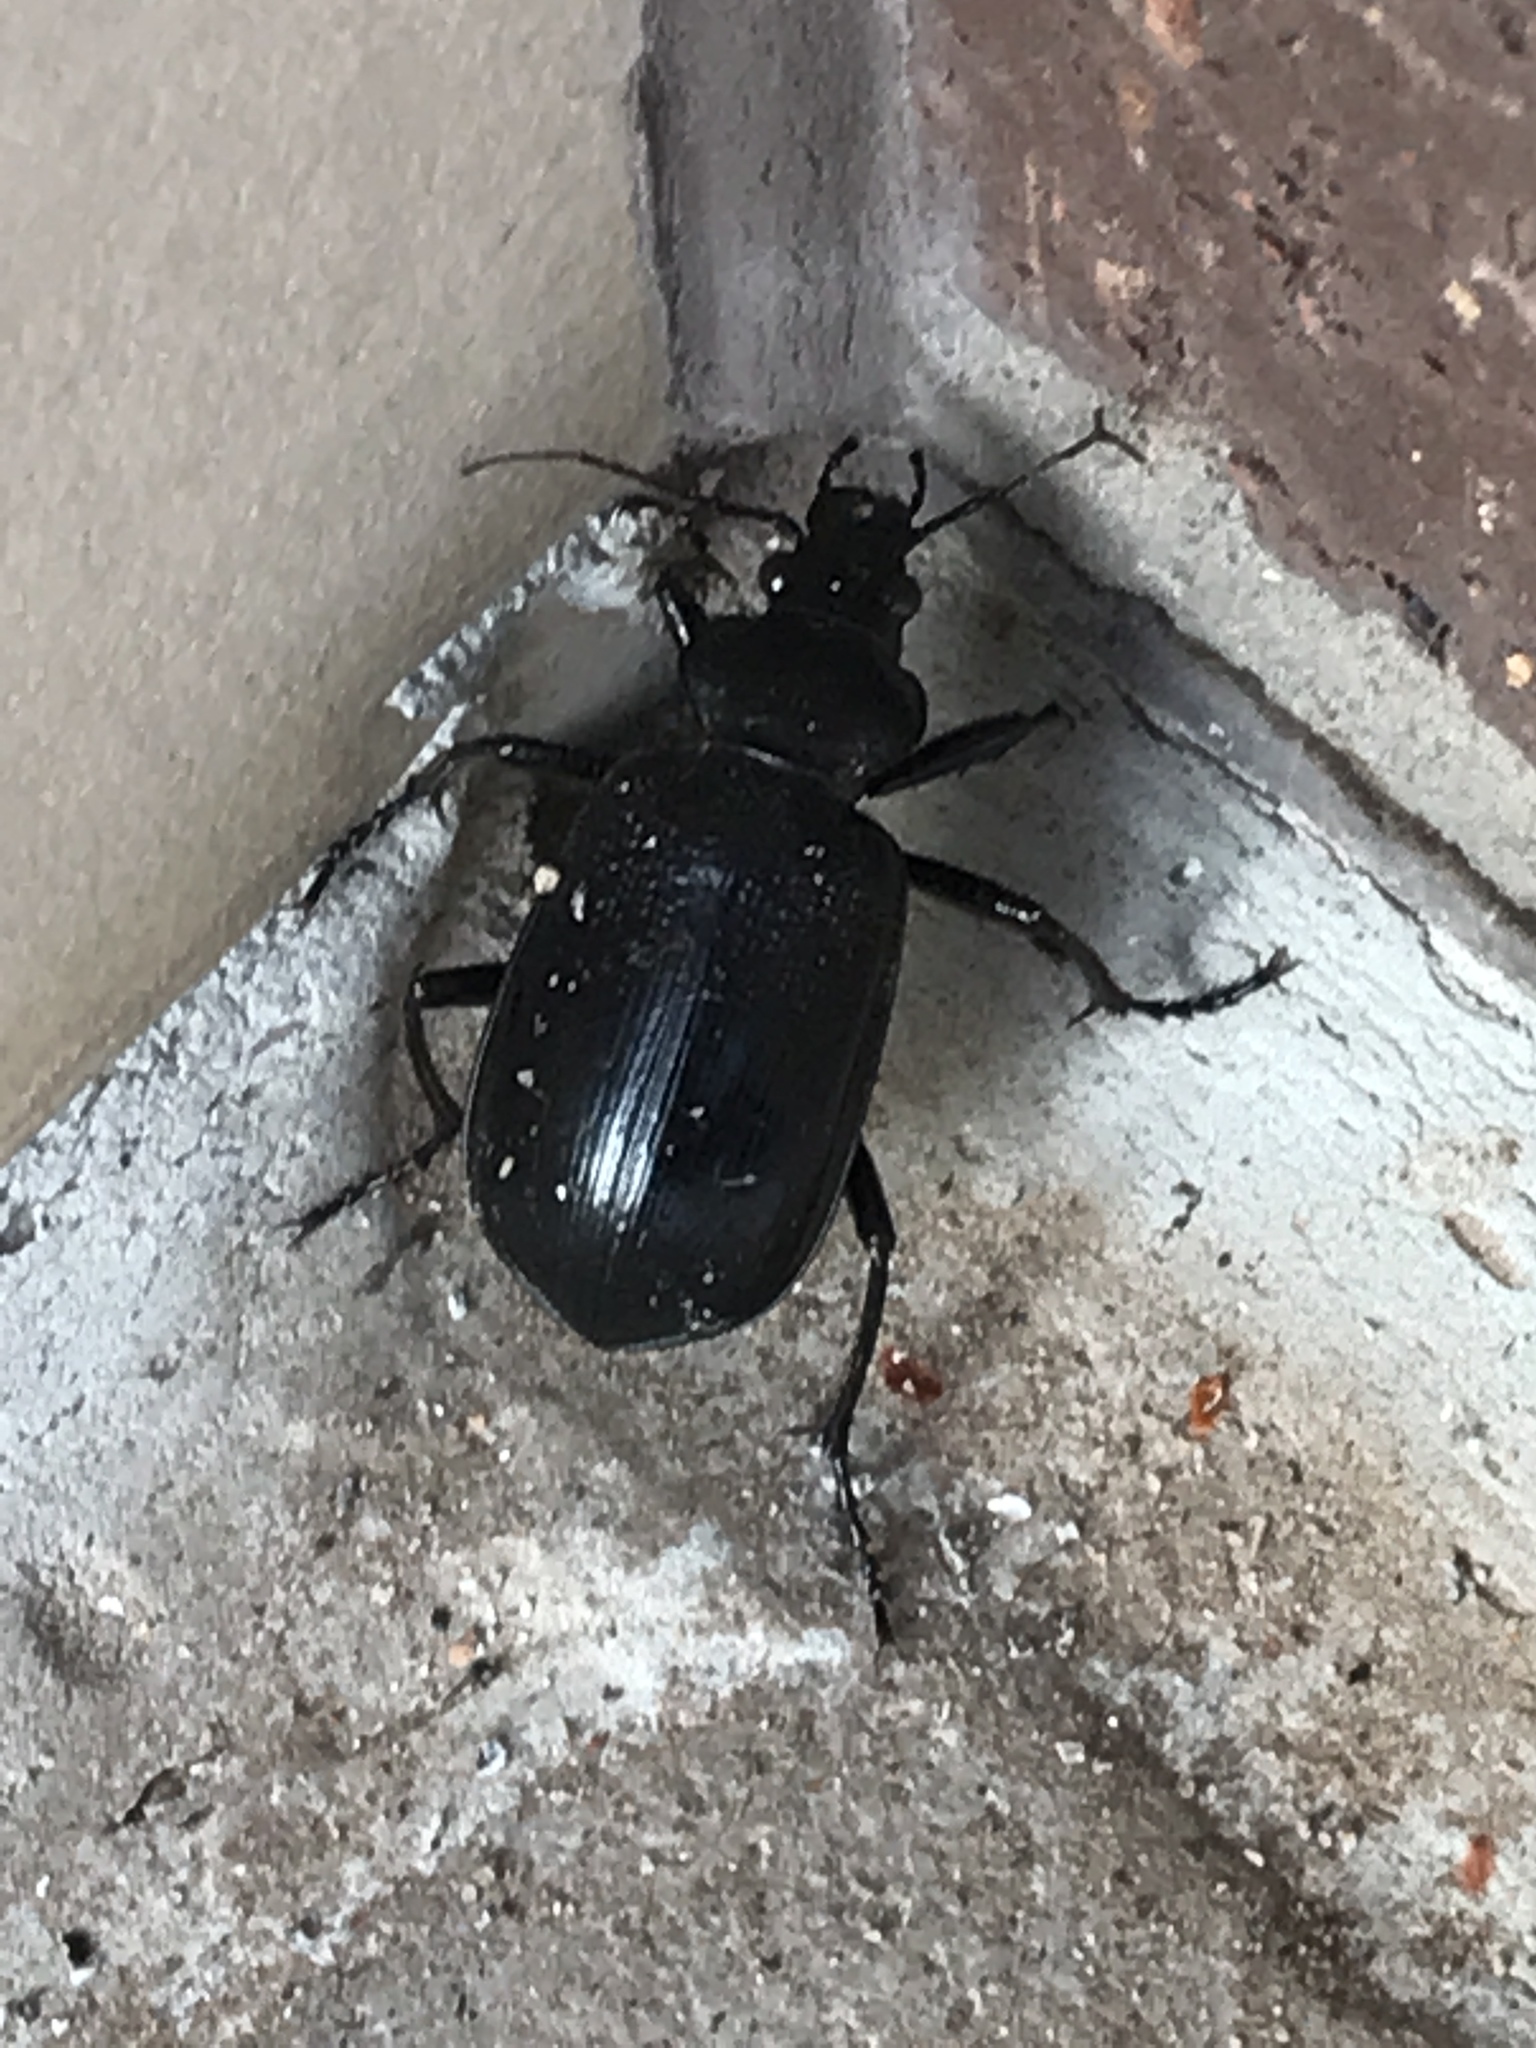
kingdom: Animalia
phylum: Arthropoda
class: Insecta
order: Coleoptera
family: Carabidae
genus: Calosoma
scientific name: Calosoma marginale
